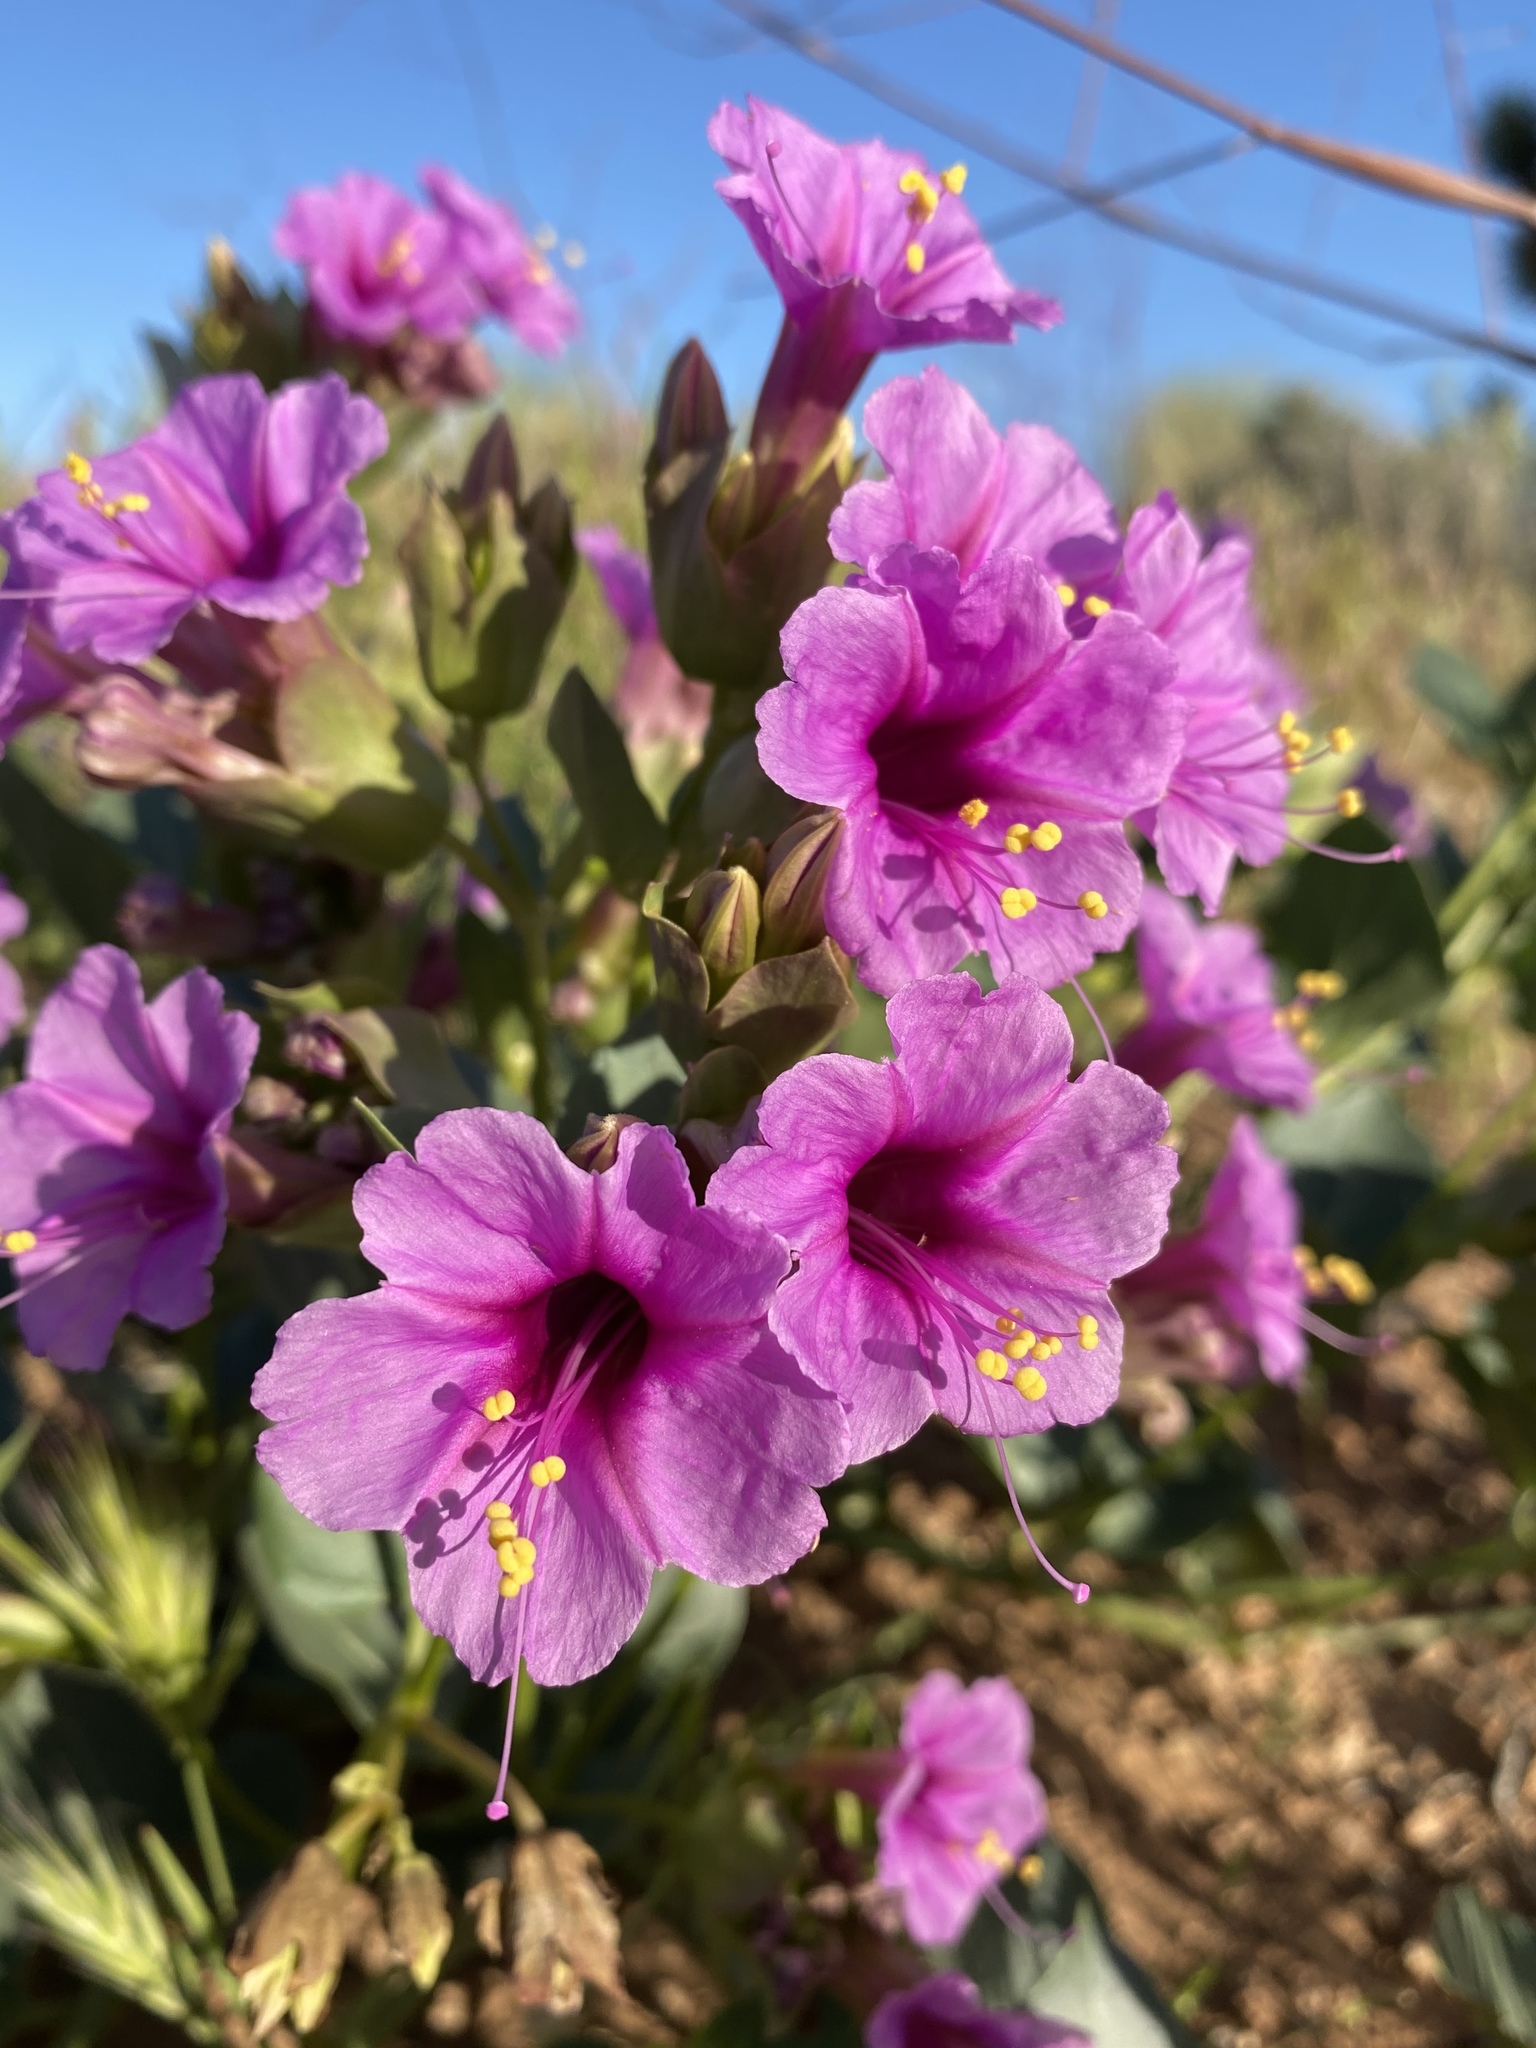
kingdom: Plantae
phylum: Tracheophyta
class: Magnoliopsida
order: Caryophyllales
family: Nyctaginaceae
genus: Mirabilis
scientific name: Mirabilis multiflora
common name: Froebel's four-o'clock
